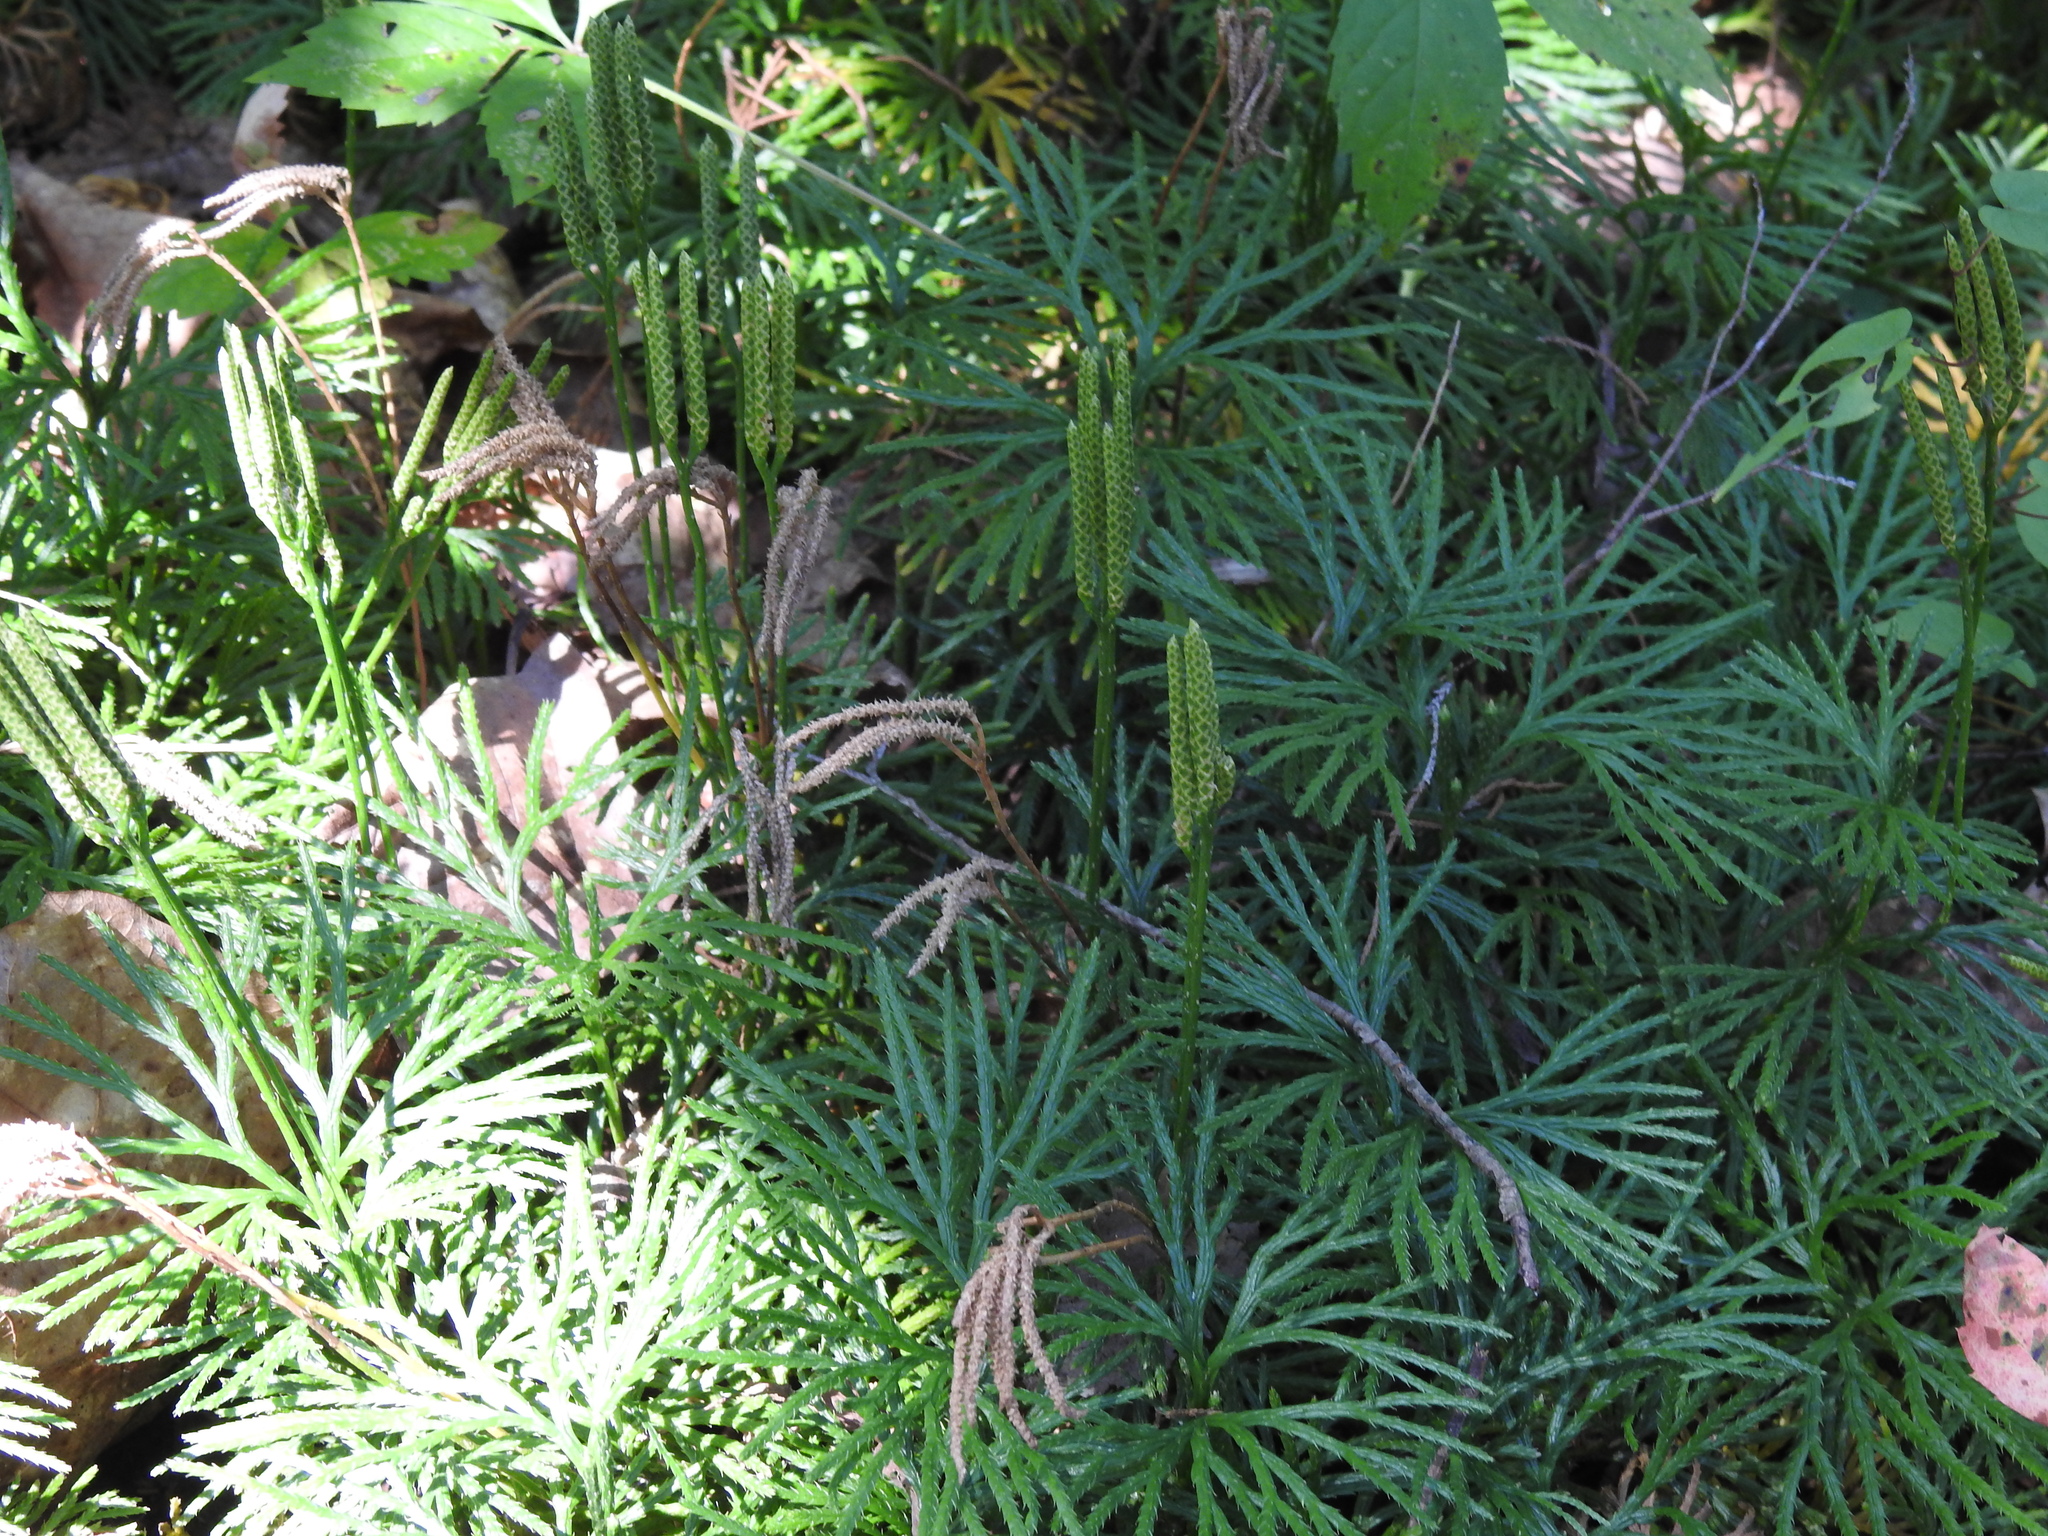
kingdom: Plantae
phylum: Tracheophyta
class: Lycopodiopsida
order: Lycopodiales
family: Lycopodiaceae
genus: Diphasiastrum
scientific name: Diphasiastrum digitatum
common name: Southern running-pine
